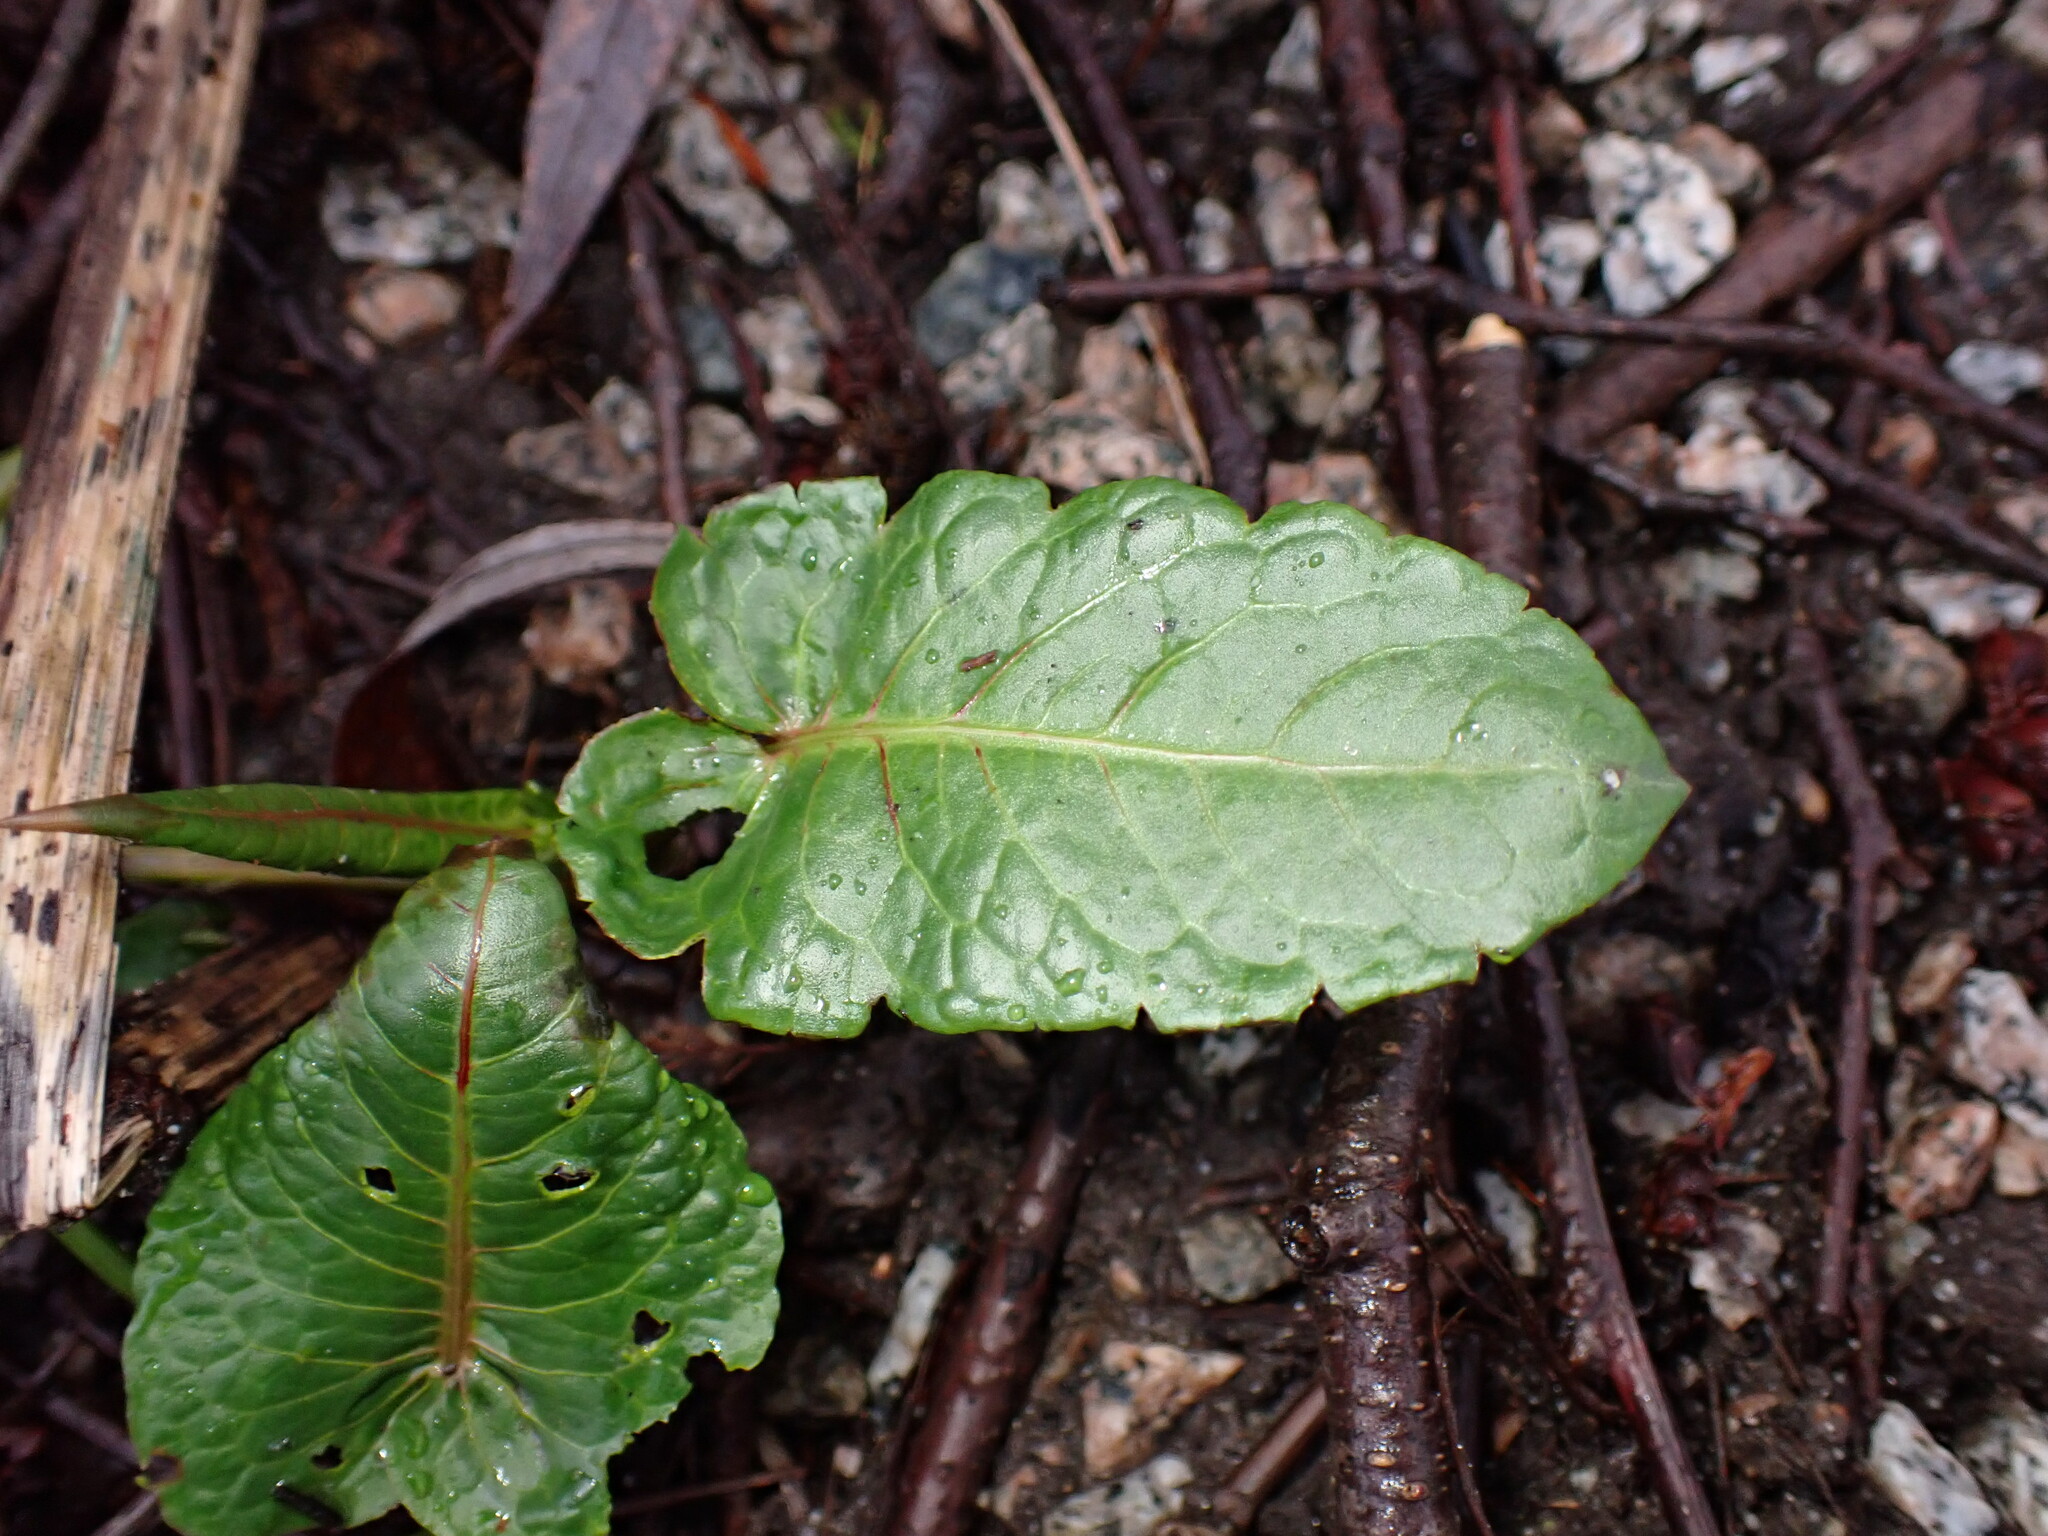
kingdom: Plantae
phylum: Tracheophyta
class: Magnoliopsida
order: Caryophyllales
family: Polygonaceae
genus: Rumex
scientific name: Rumex obtusifolius
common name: Bitter dock
